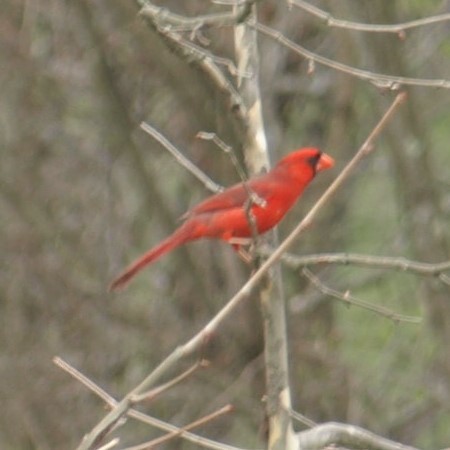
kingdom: Animalia
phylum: Chordata
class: Aves
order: Passeriformes
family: Cardinalidae
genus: Cardinalis
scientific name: Cardinalis cardinalis
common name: Northern cardinal
